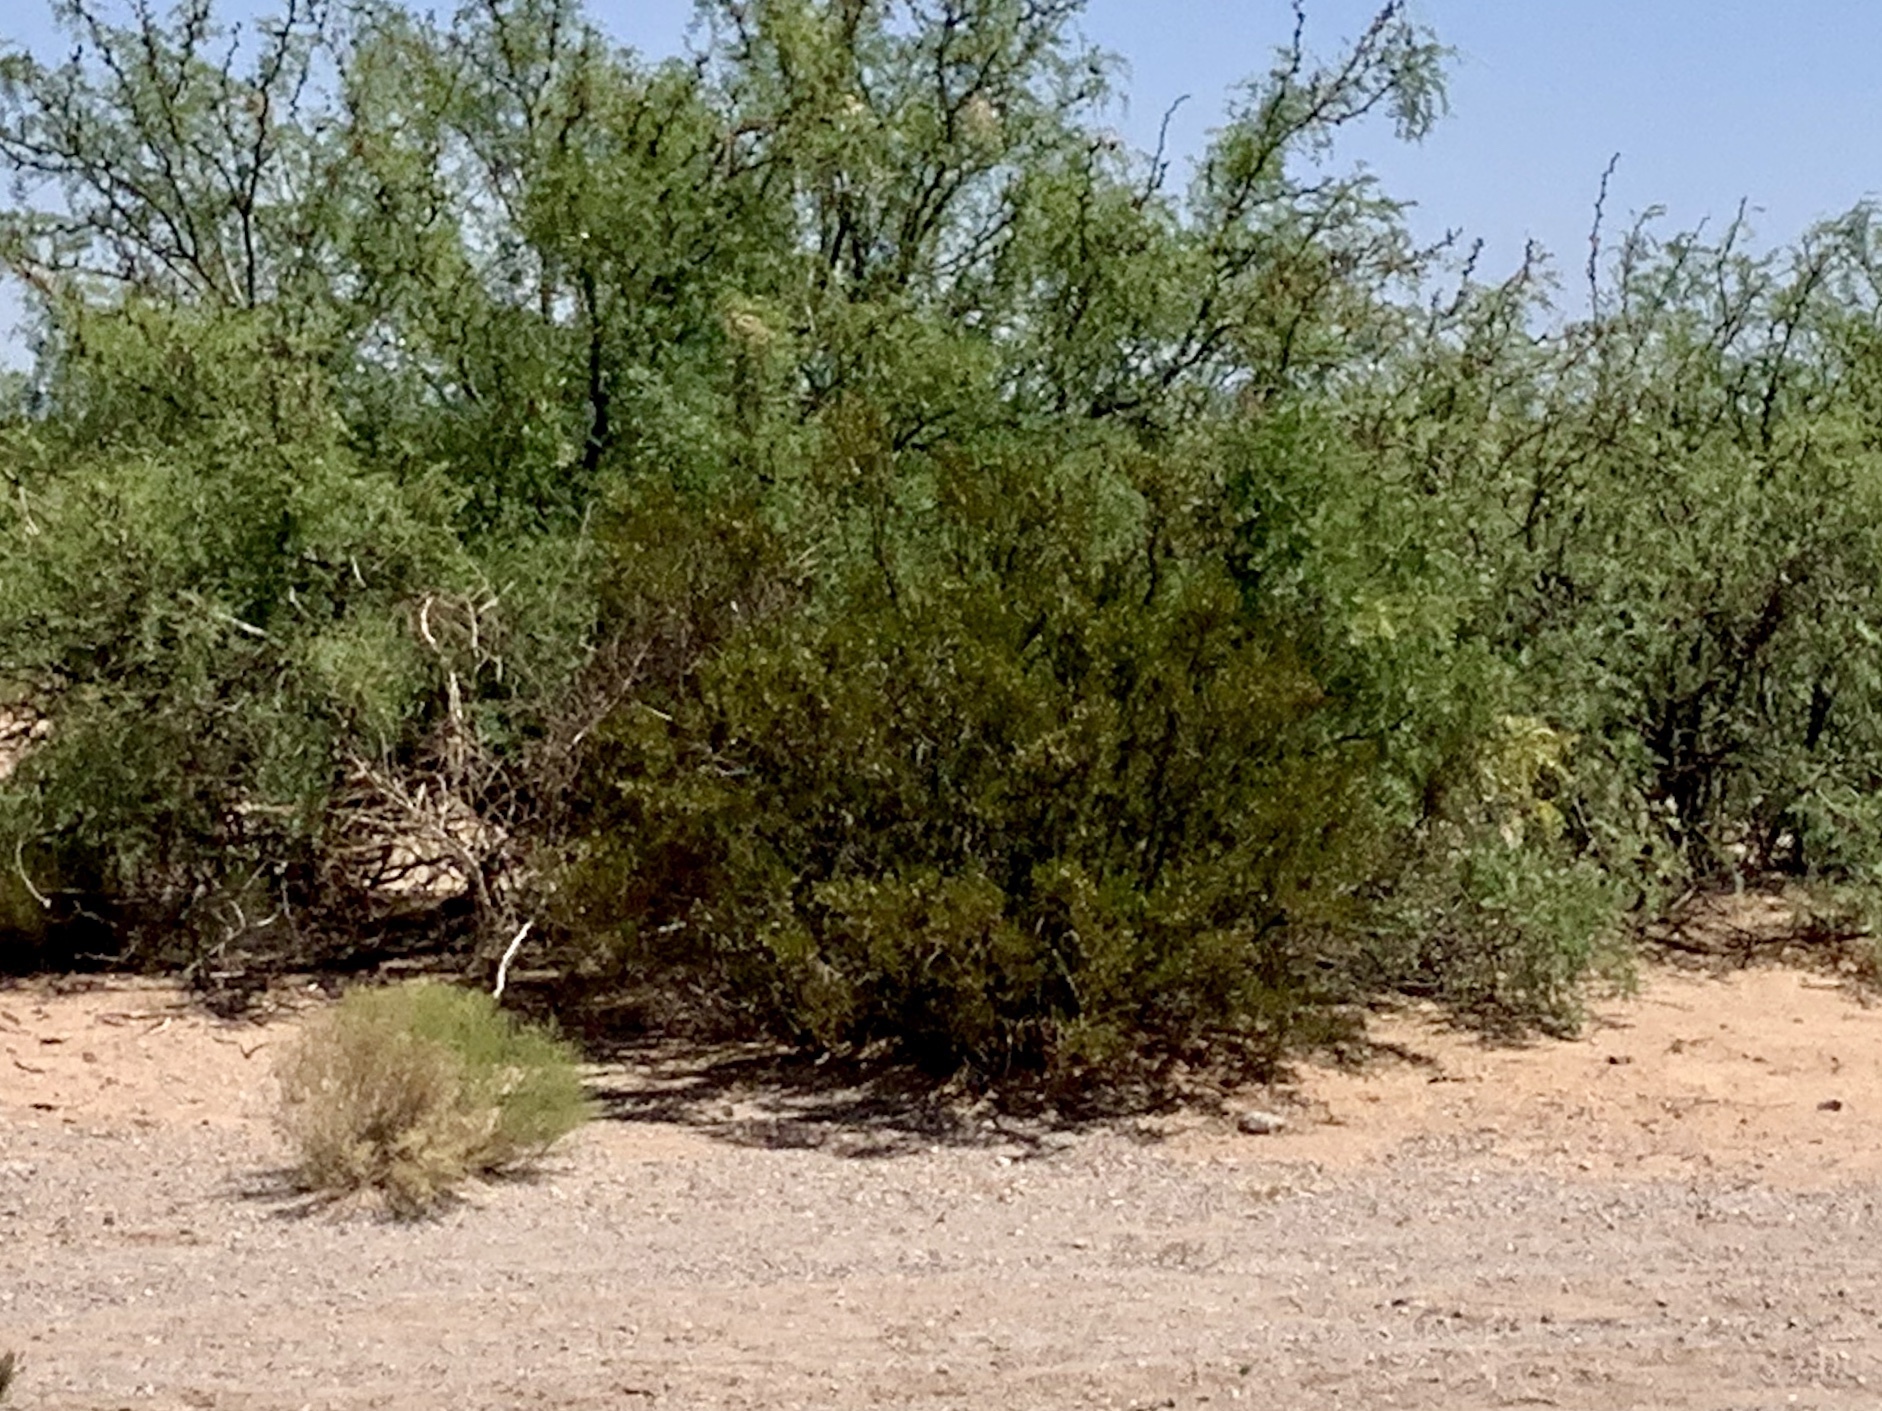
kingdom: Plantae
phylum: Tracheophyta
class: Magnoliopsida
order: Zygophyllales
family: Zygophyllaceae
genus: Larrea
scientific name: Larrea tridentata
